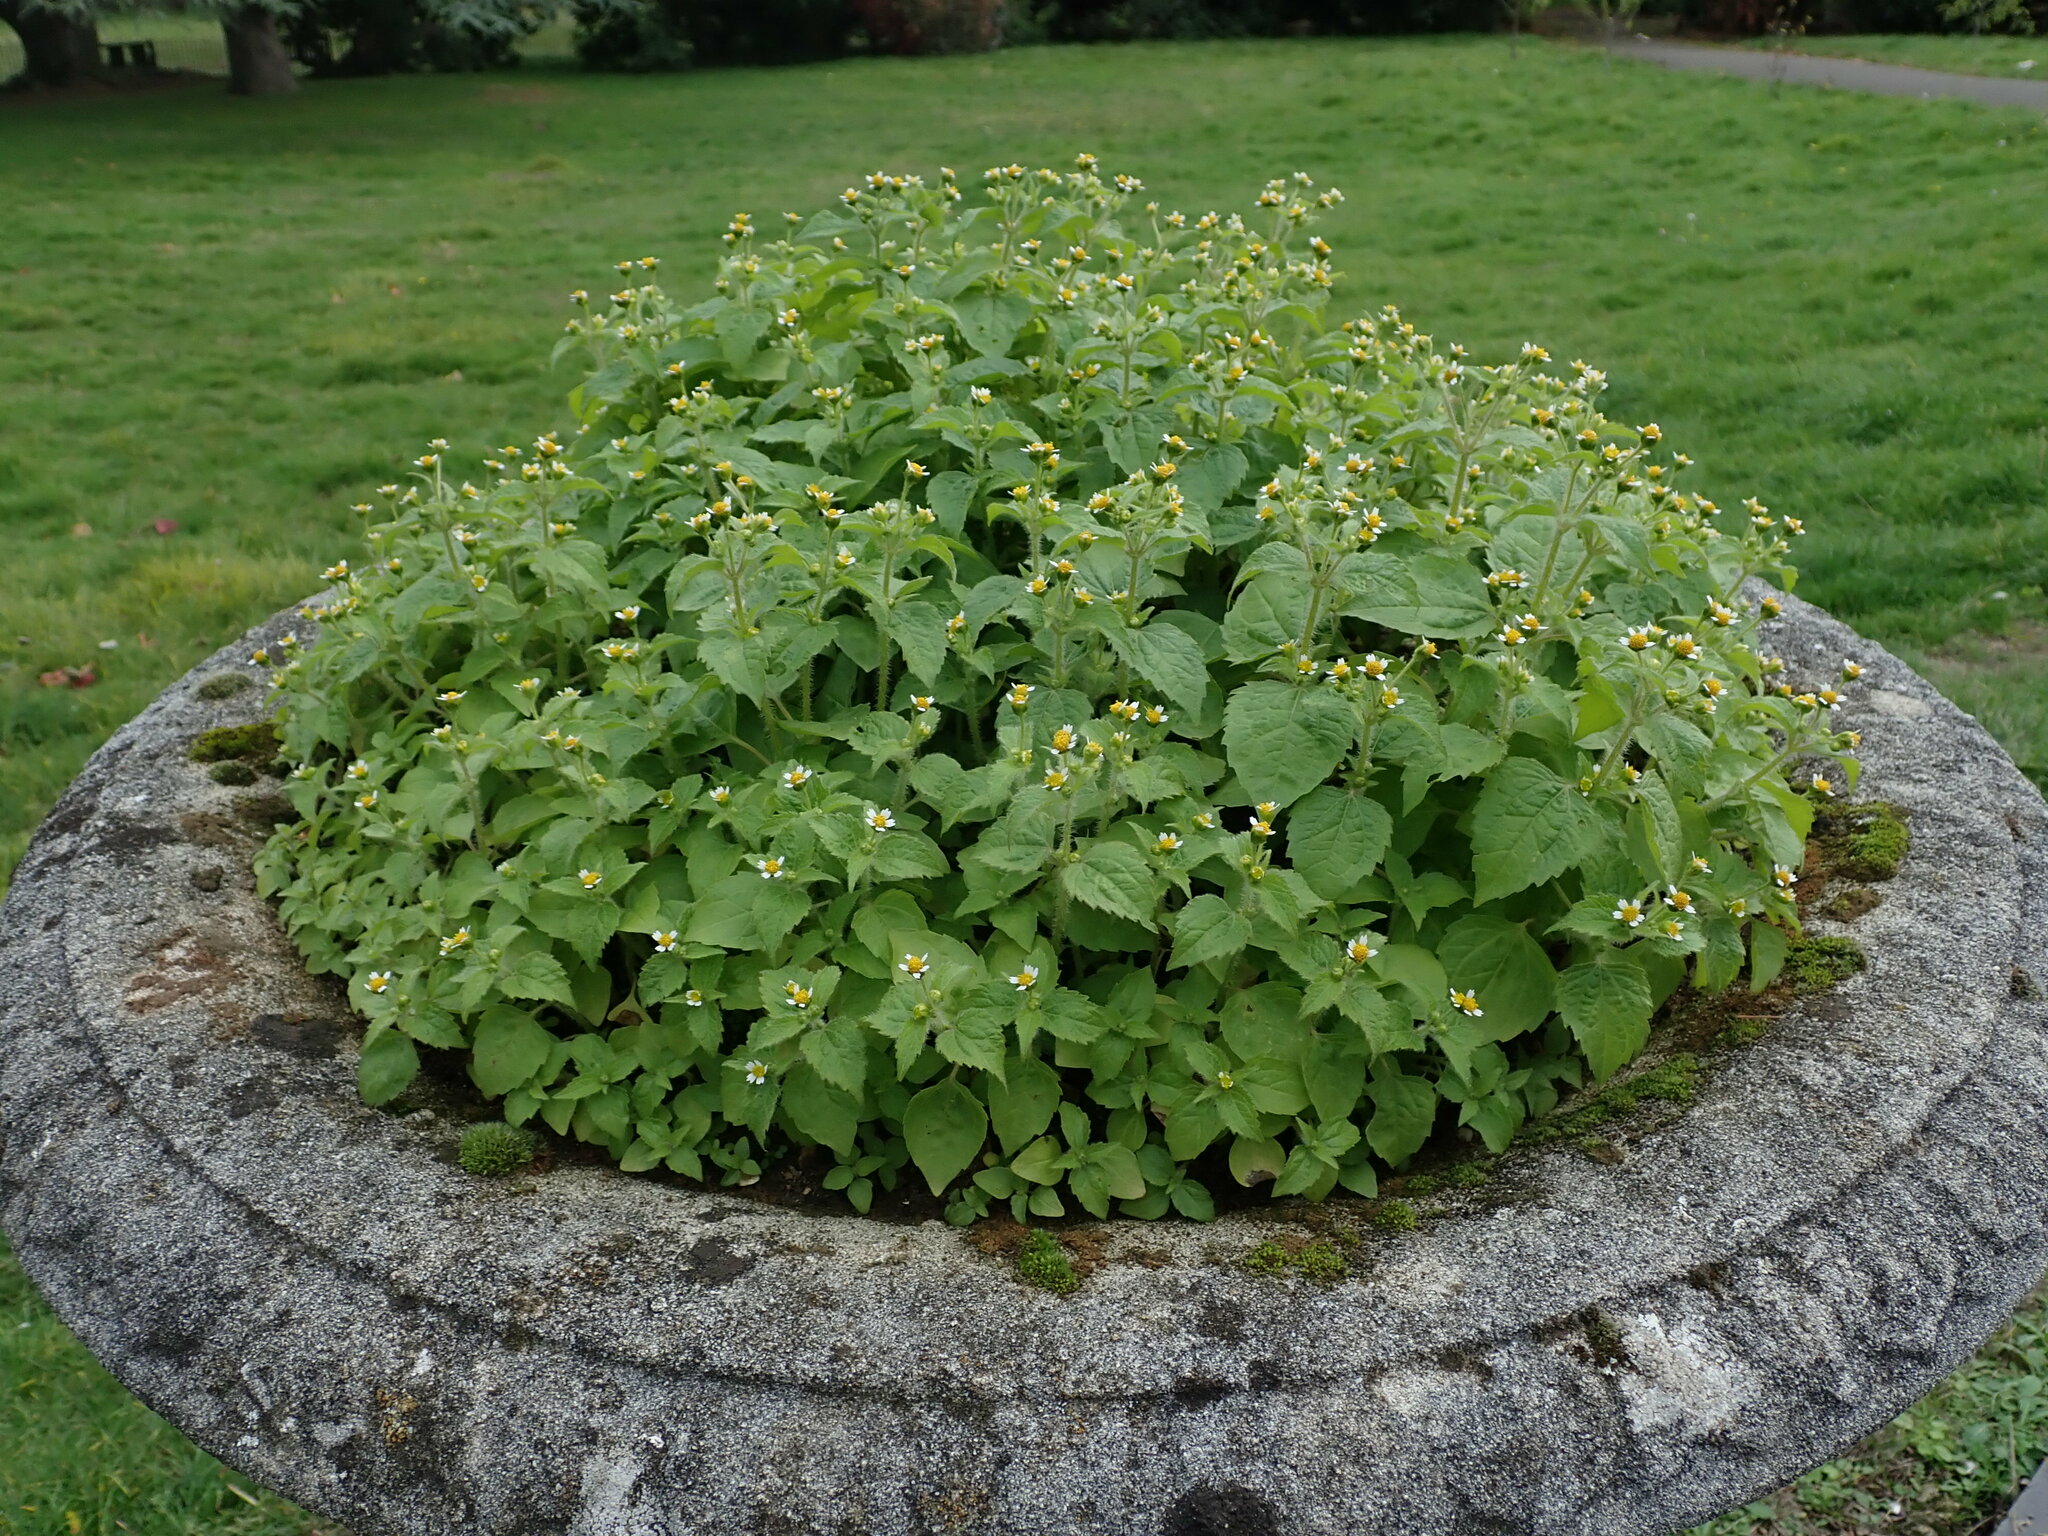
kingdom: Plantae
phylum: Tracheophyta
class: Magnoliopsida
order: Asterales
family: Asteraceae
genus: Galinsoga
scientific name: Galinsoga quadriradiata
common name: Shaggy soldier
